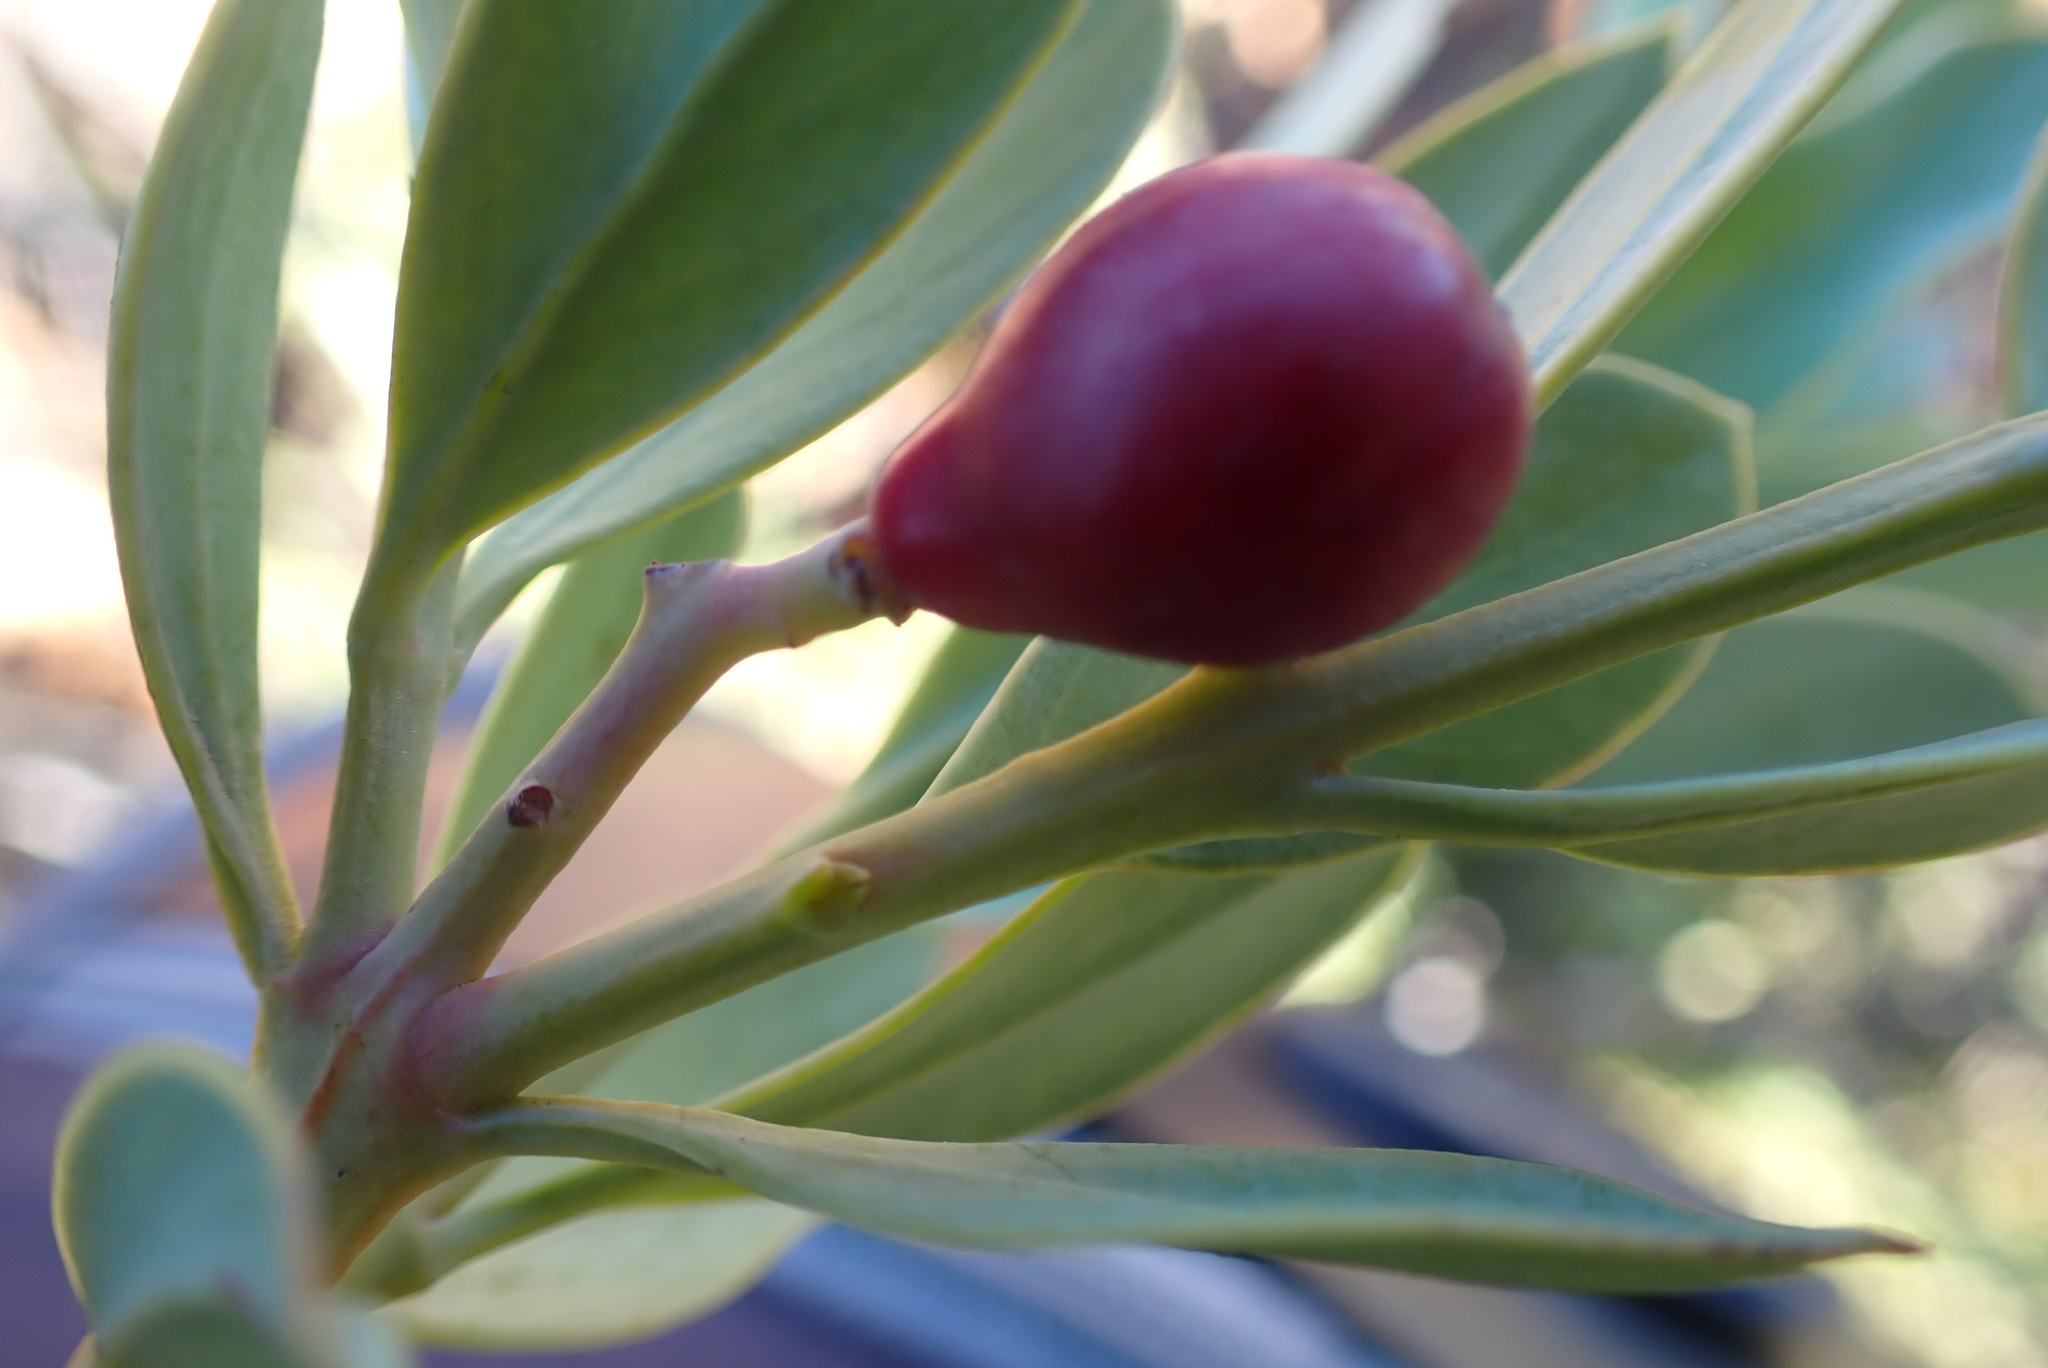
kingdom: Plantae
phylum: Tracheophyta
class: Magnoliopsida
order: Santalales
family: Santalaceae
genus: Osyris
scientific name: Osyris compressa
